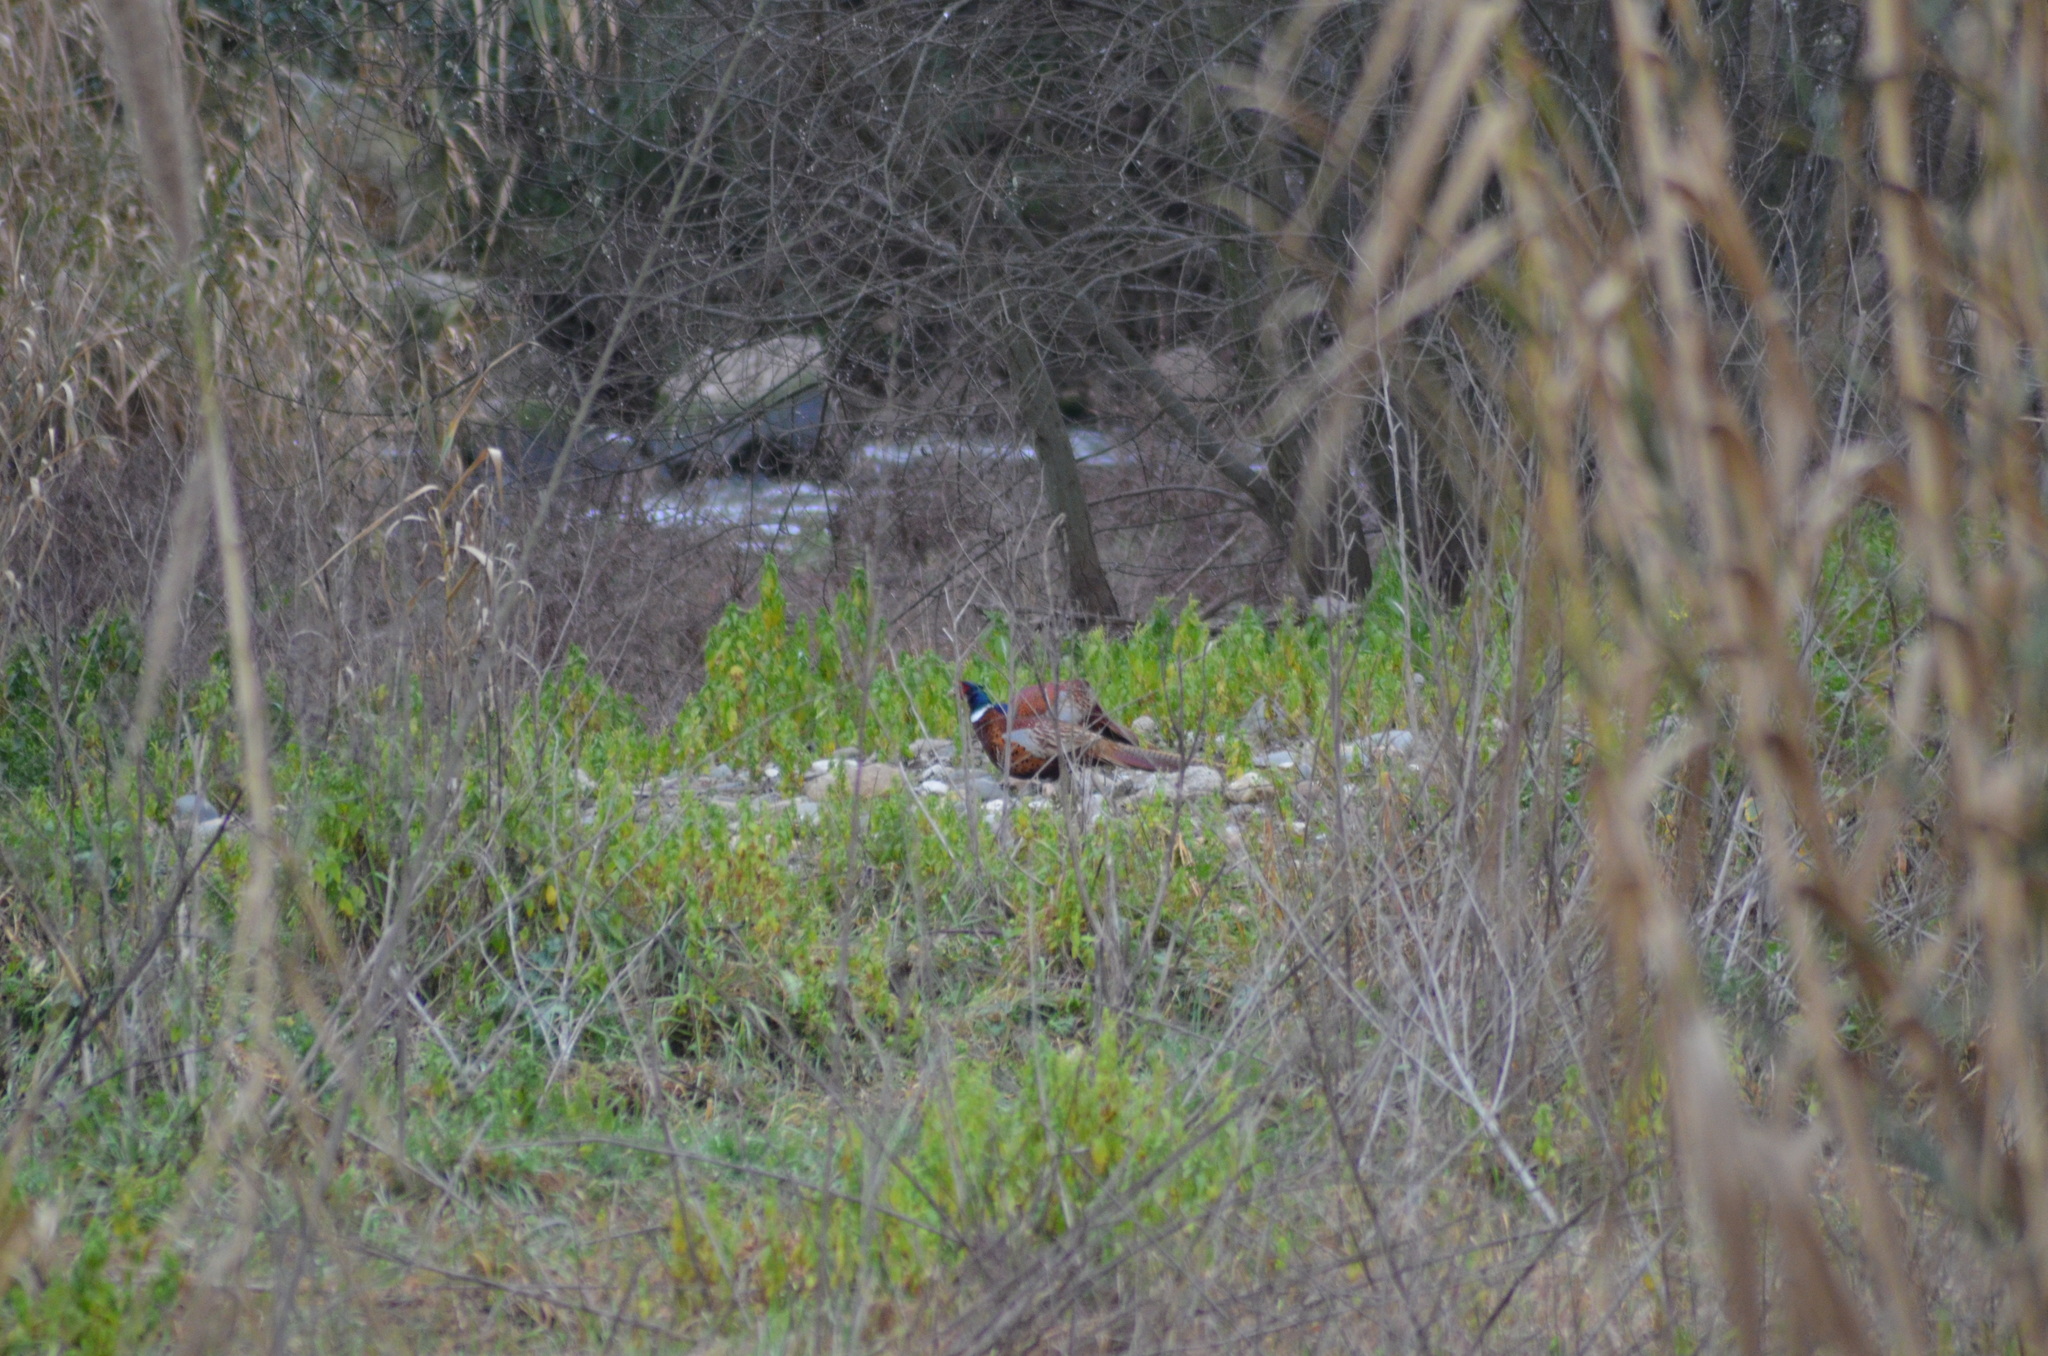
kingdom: Animalia
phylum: Chordata
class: Aves
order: Galliformes
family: Phasianidae
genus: Phasianus
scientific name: Phasianus colchicus
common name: Common pheasant
